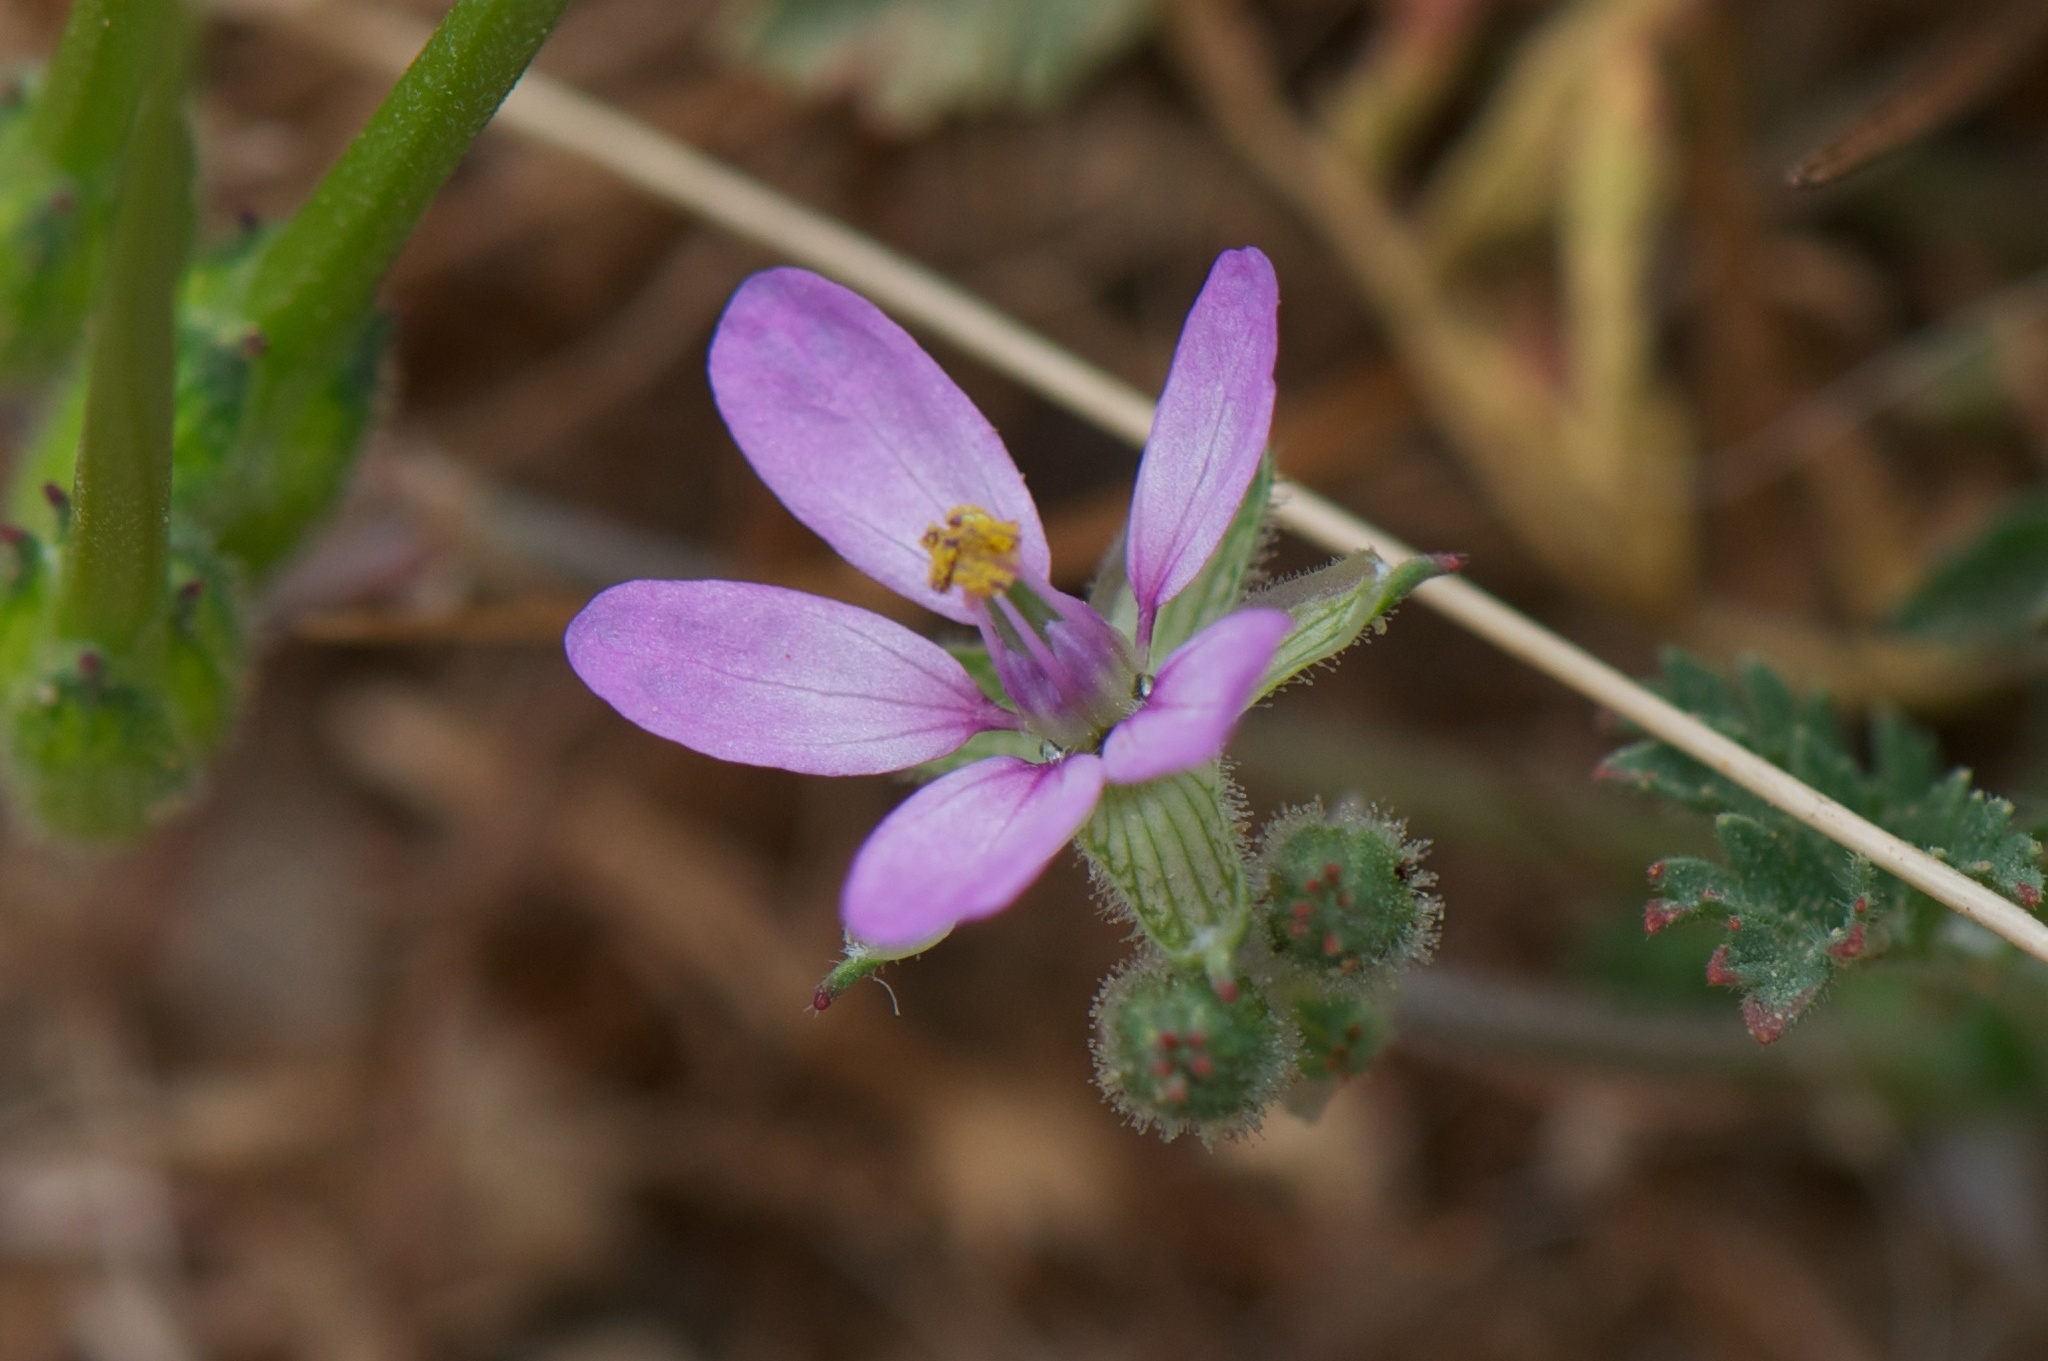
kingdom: Plantae
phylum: Tracheophyta
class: Magnoliopsida
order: Geraniales
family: Geraniaceae
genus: Erodium
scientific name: Erodium moschatum
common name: Musk stork's-bill
